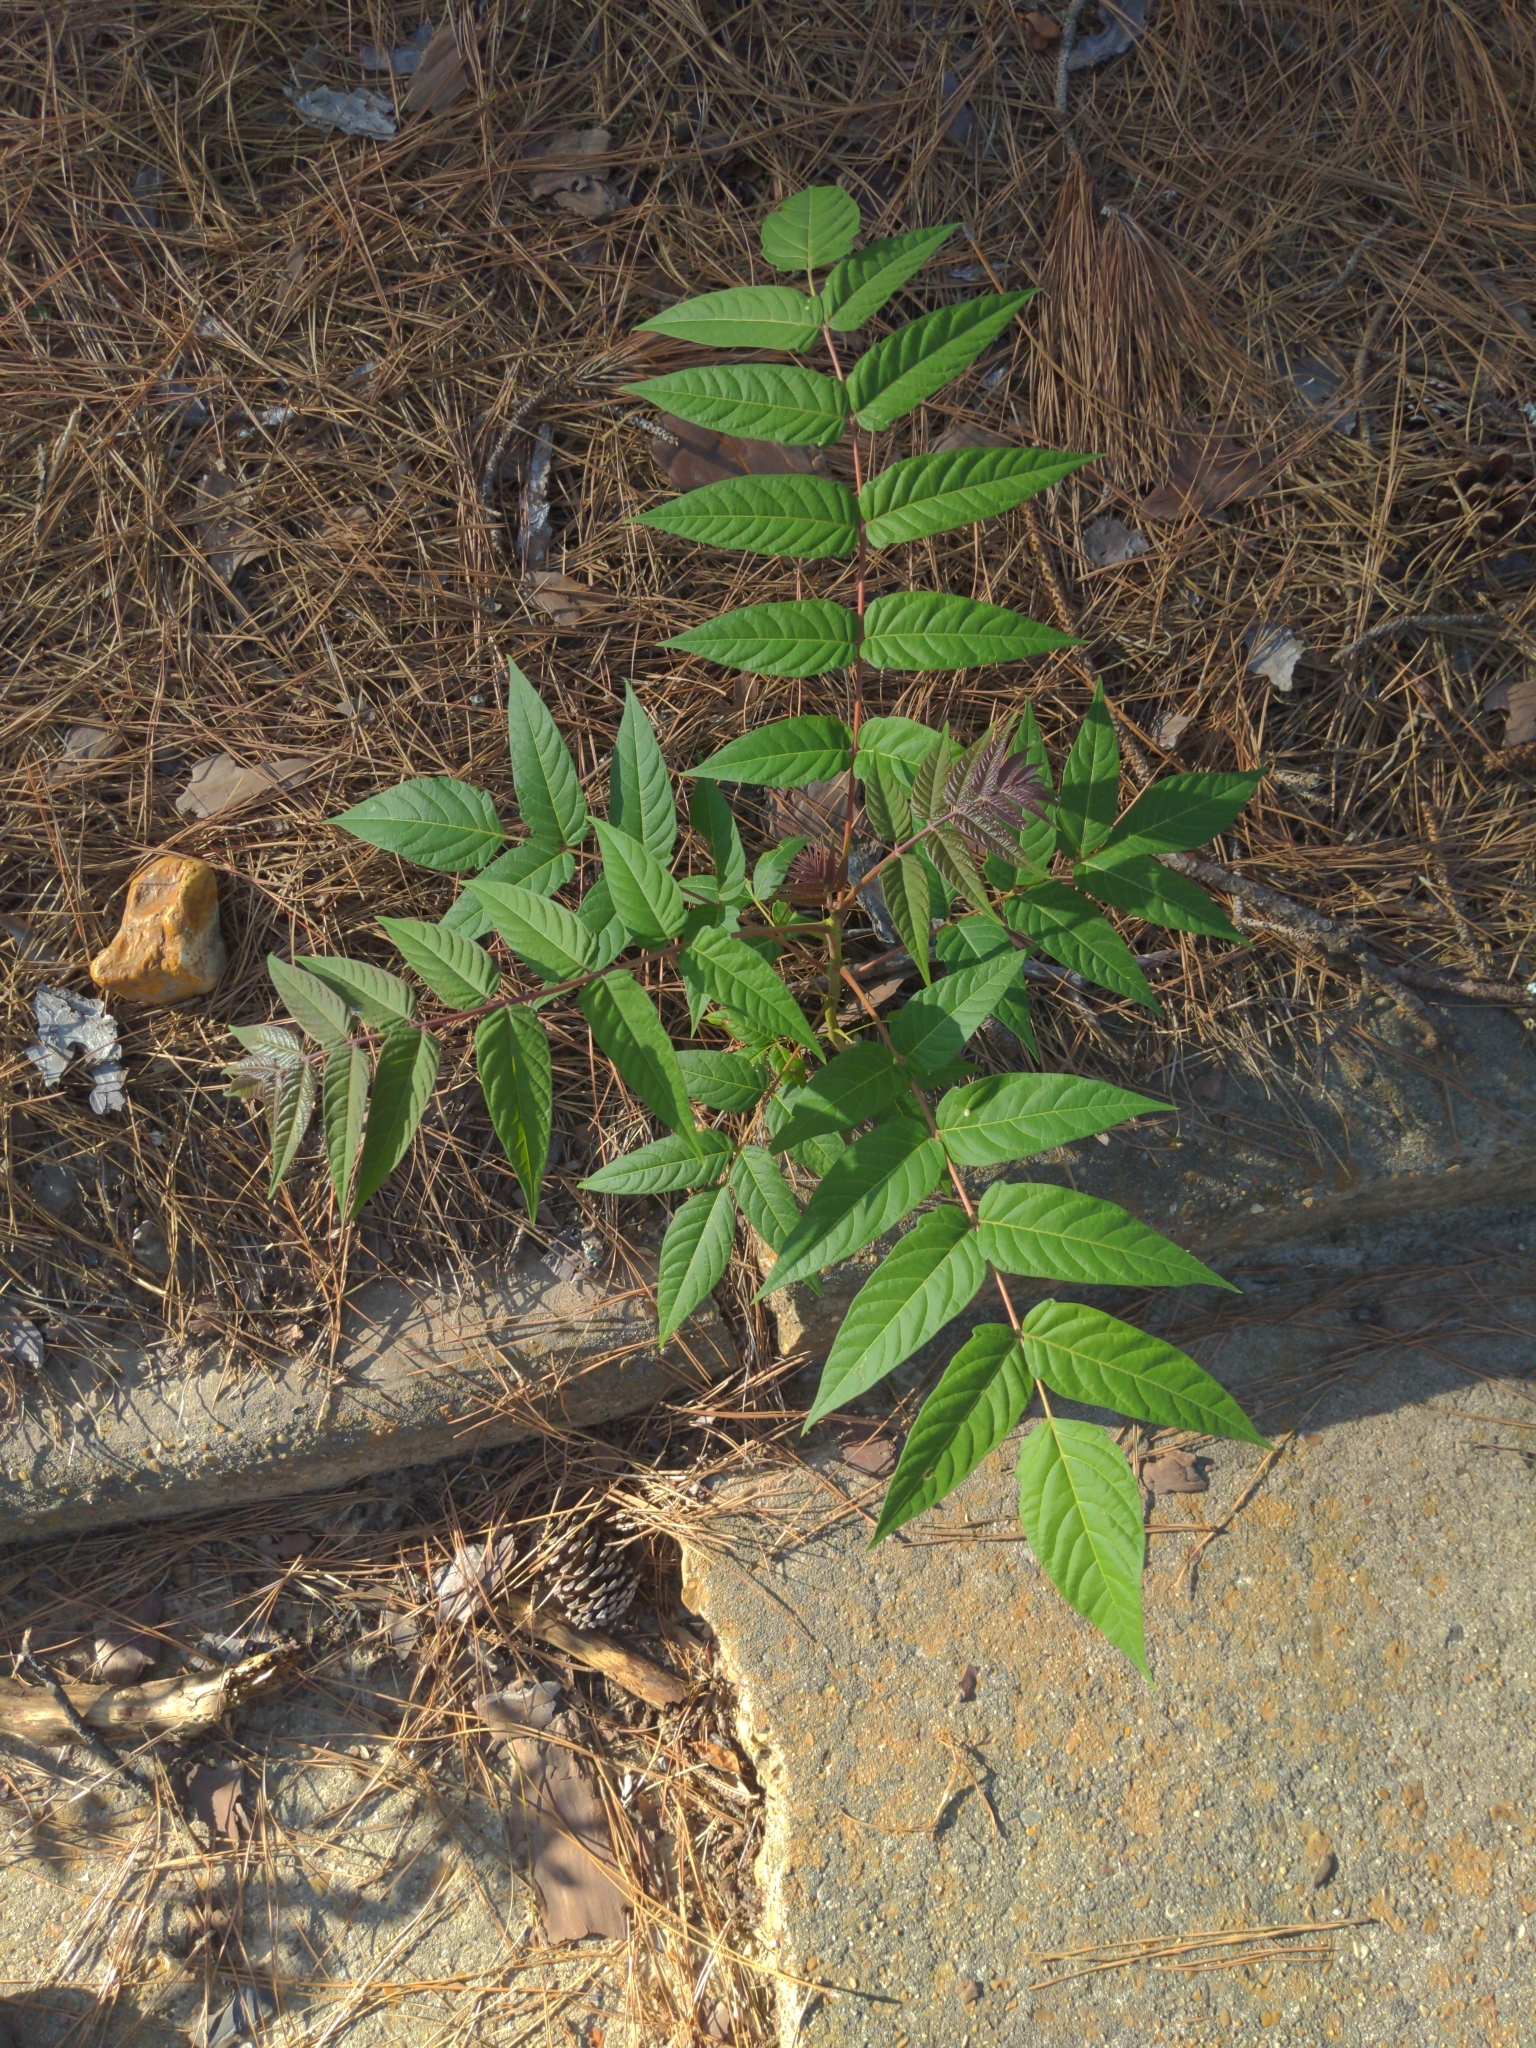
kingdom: Plantae
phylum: Tracheophyta
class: Magnoliopsida
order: Sapindales
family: Simaroubaceae
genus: Ailanthus
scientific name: Ailanthus altissima
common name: Tree-of-heaven
